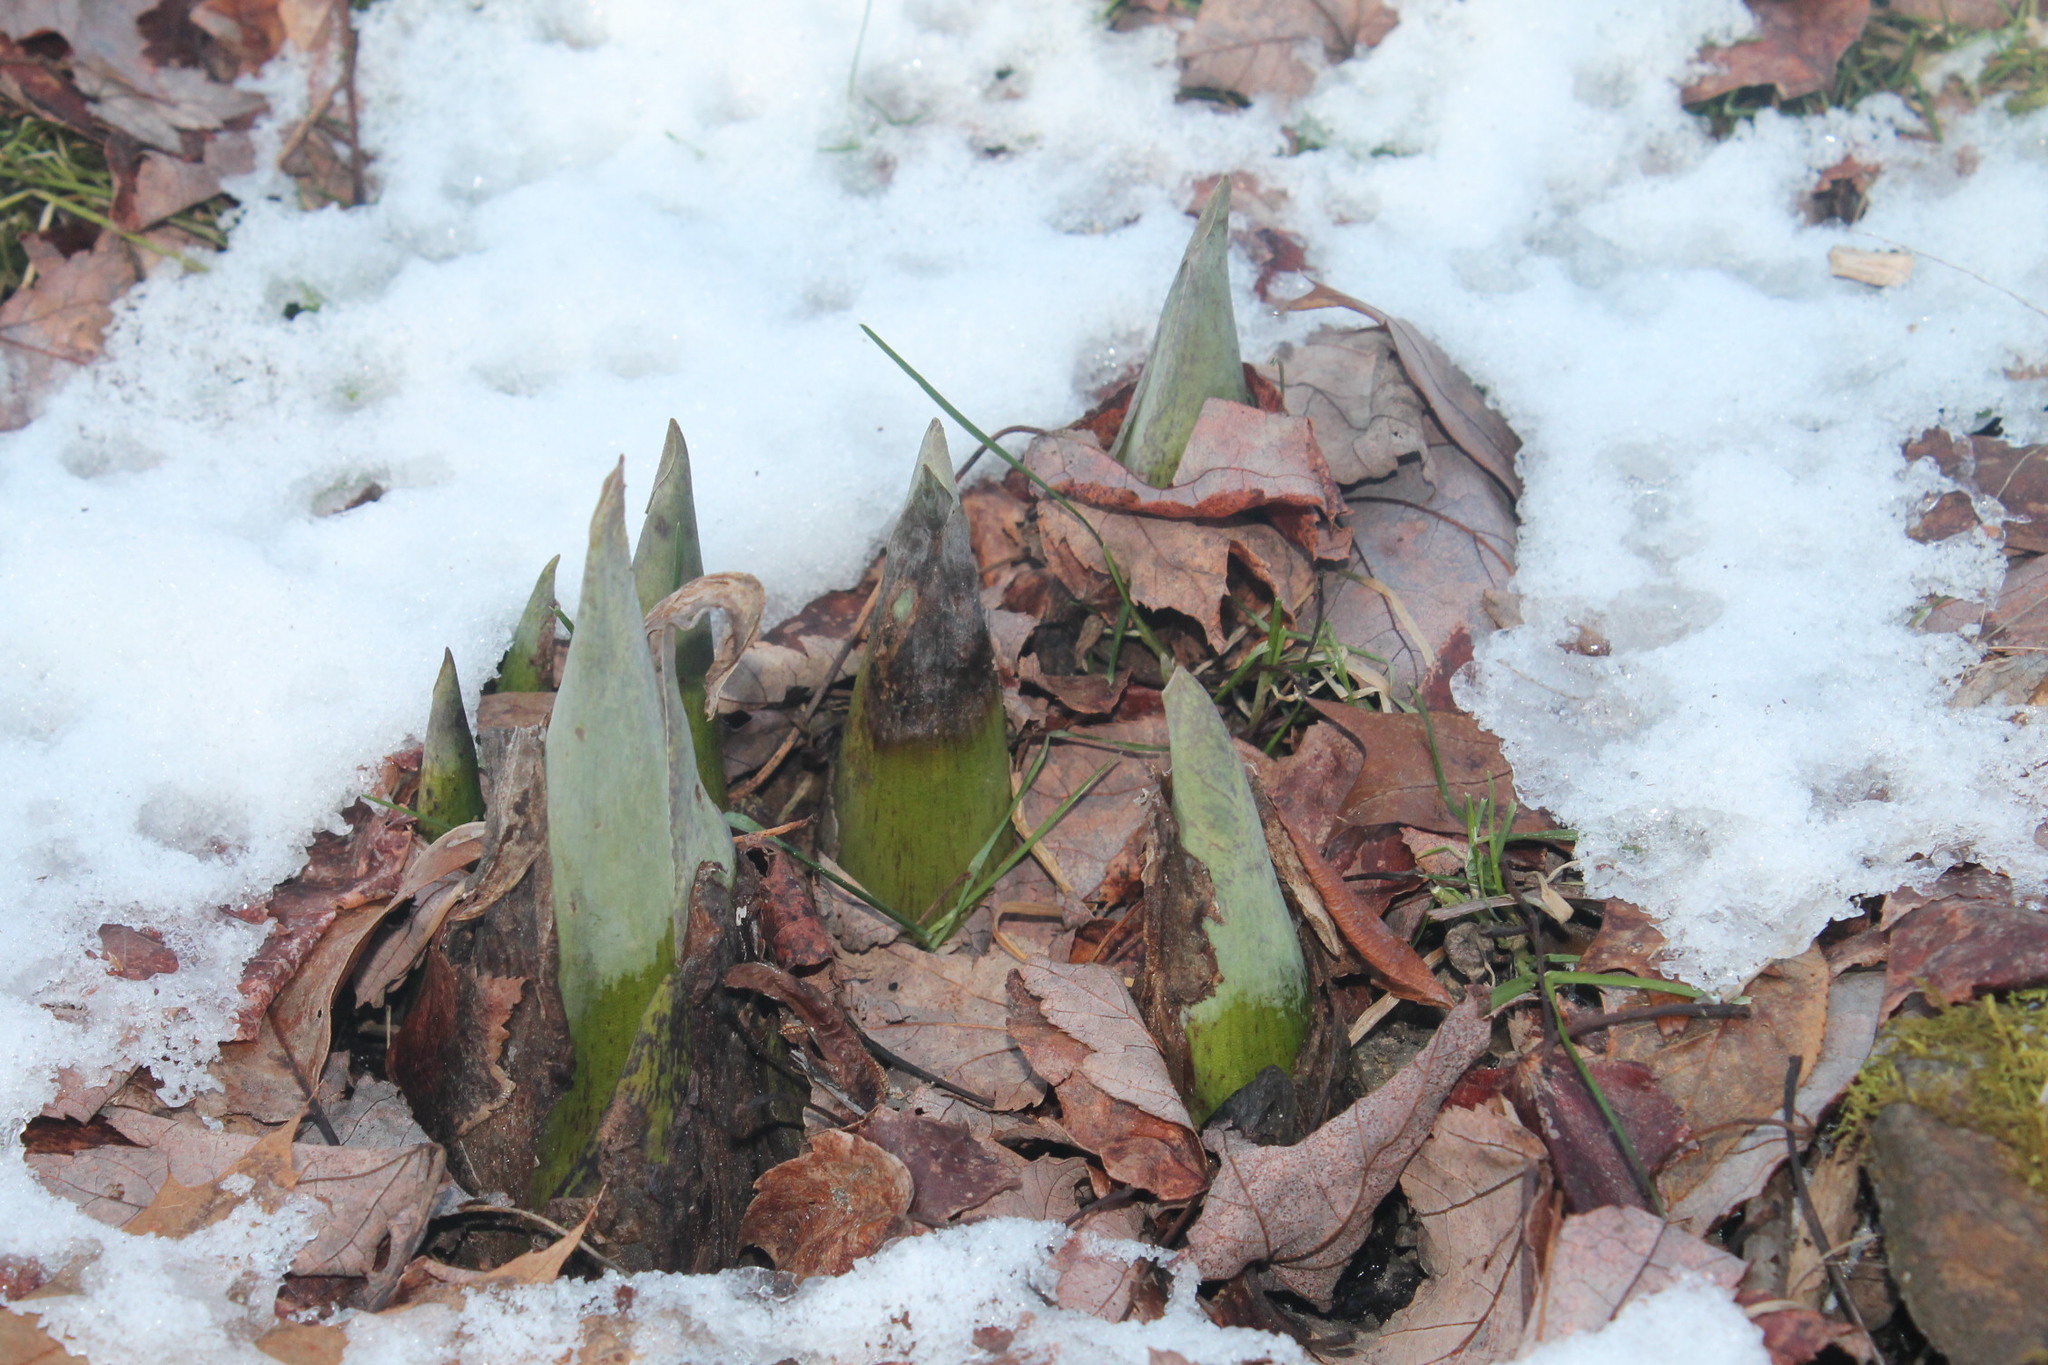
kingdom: Plantae
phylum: Tracheophyta
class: Liliopsida
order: Alismatales
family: Araceae
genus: Symplocarpus
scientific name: Symplocarpus foetidus
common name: Eastern skunk cabbage
